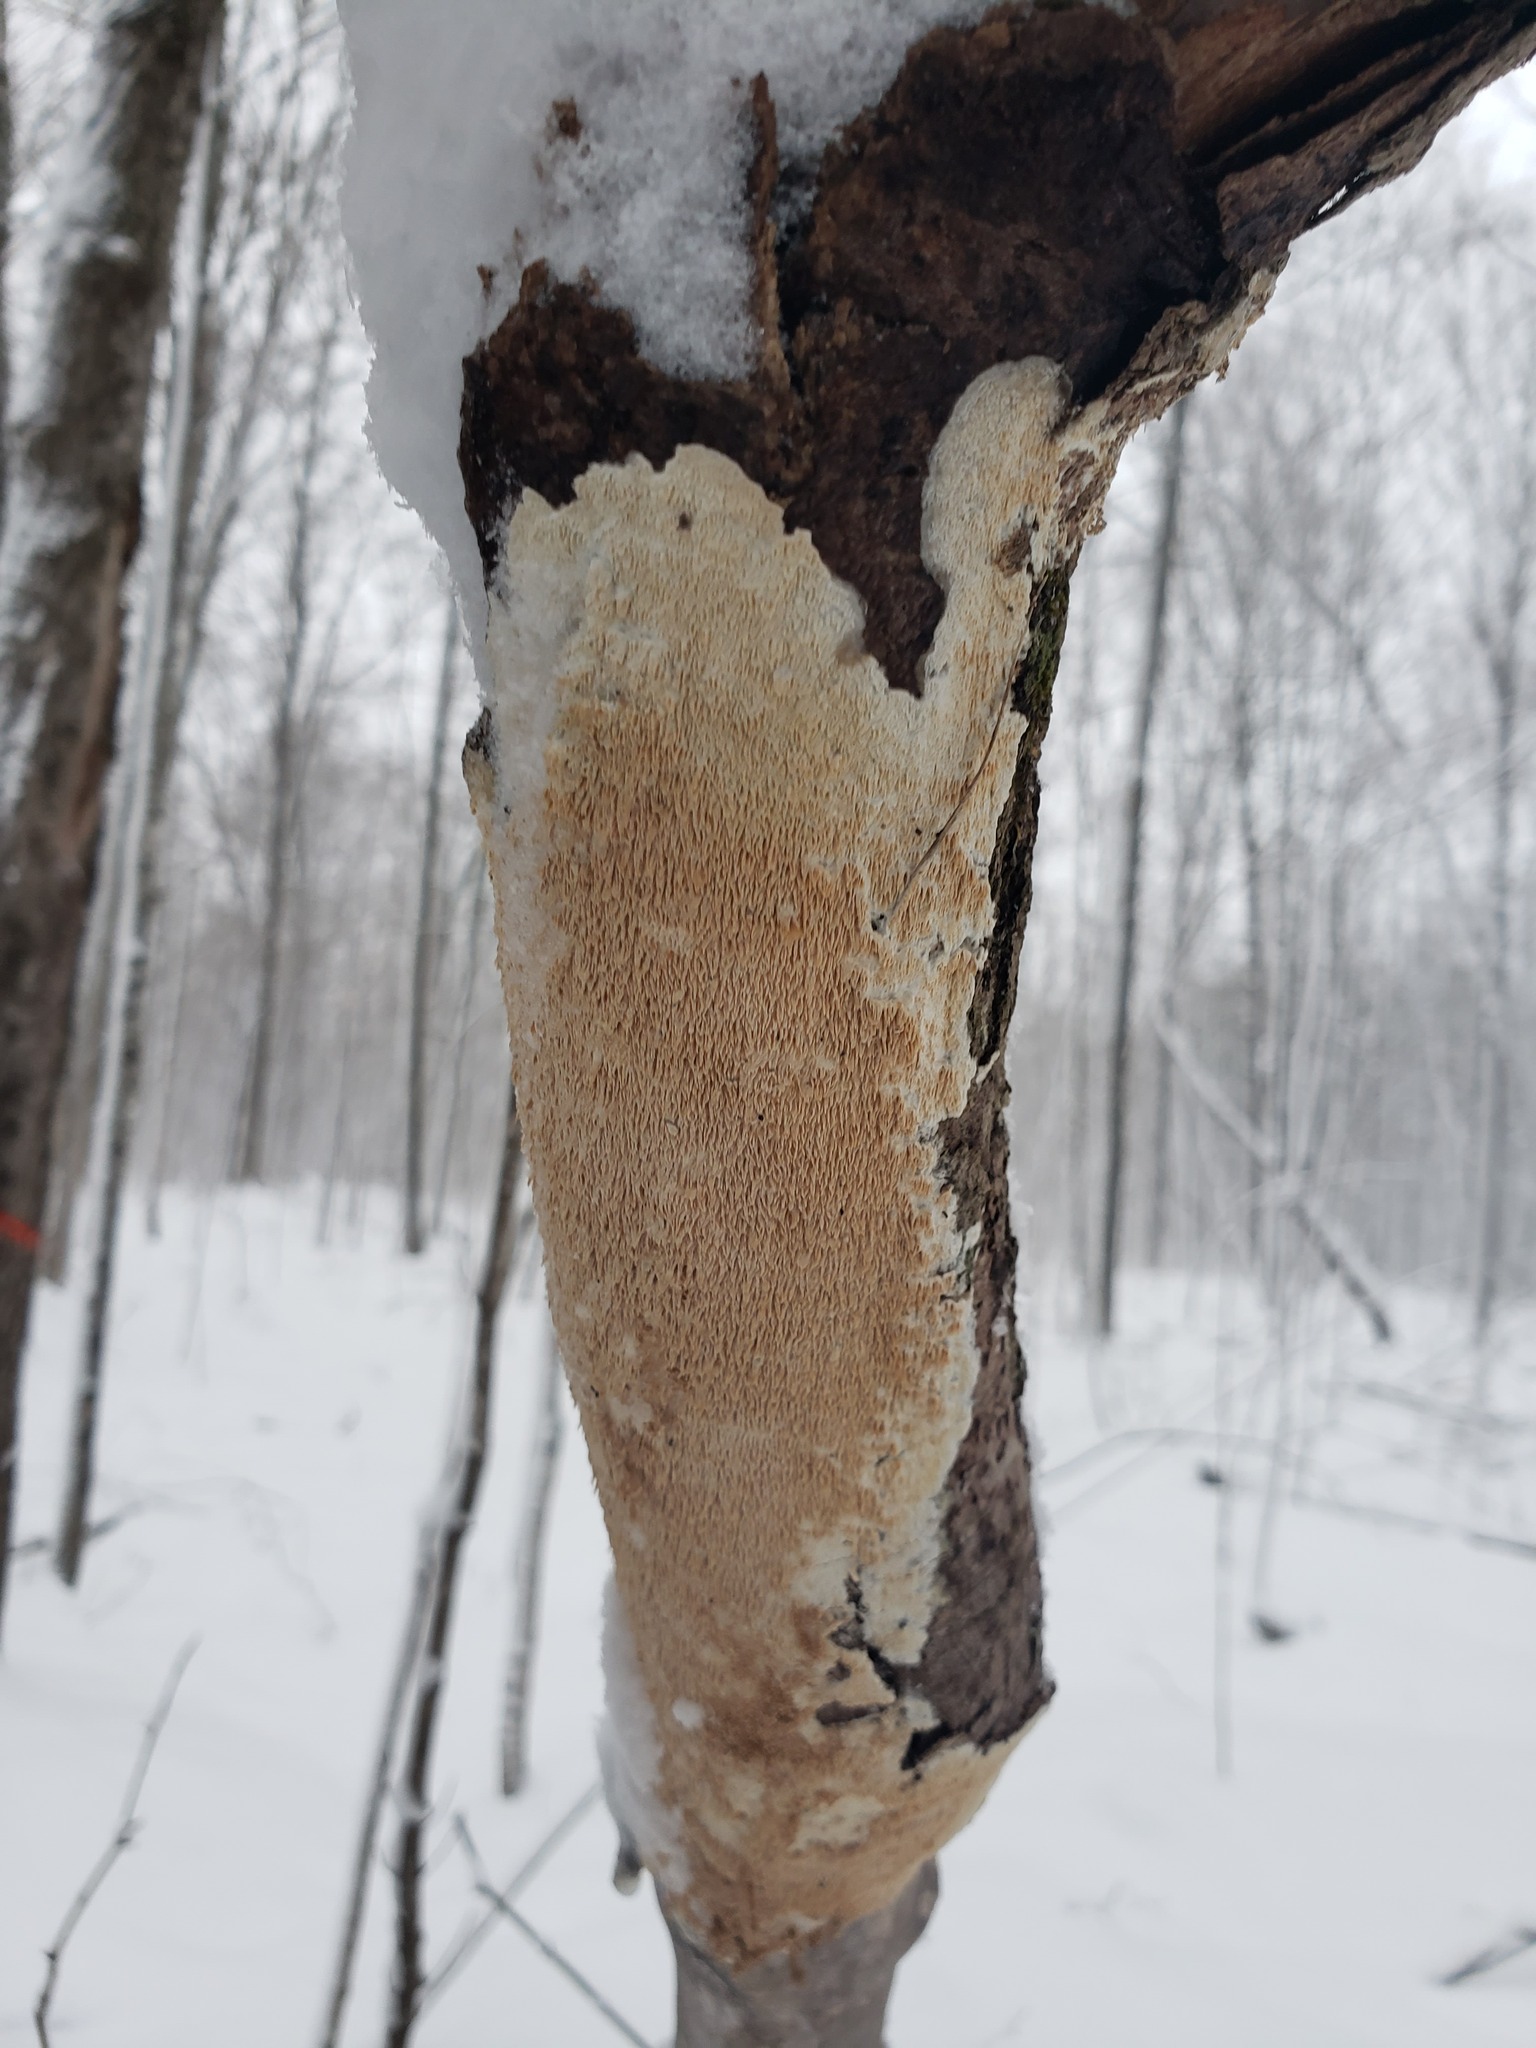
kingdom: Fungi
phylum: Basidiomycota
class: Agaricomycetes
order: Polyporales
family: Irpicaceae
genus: Irpex
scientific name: Irpex lacteus
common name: Milk-white toothed polypore
